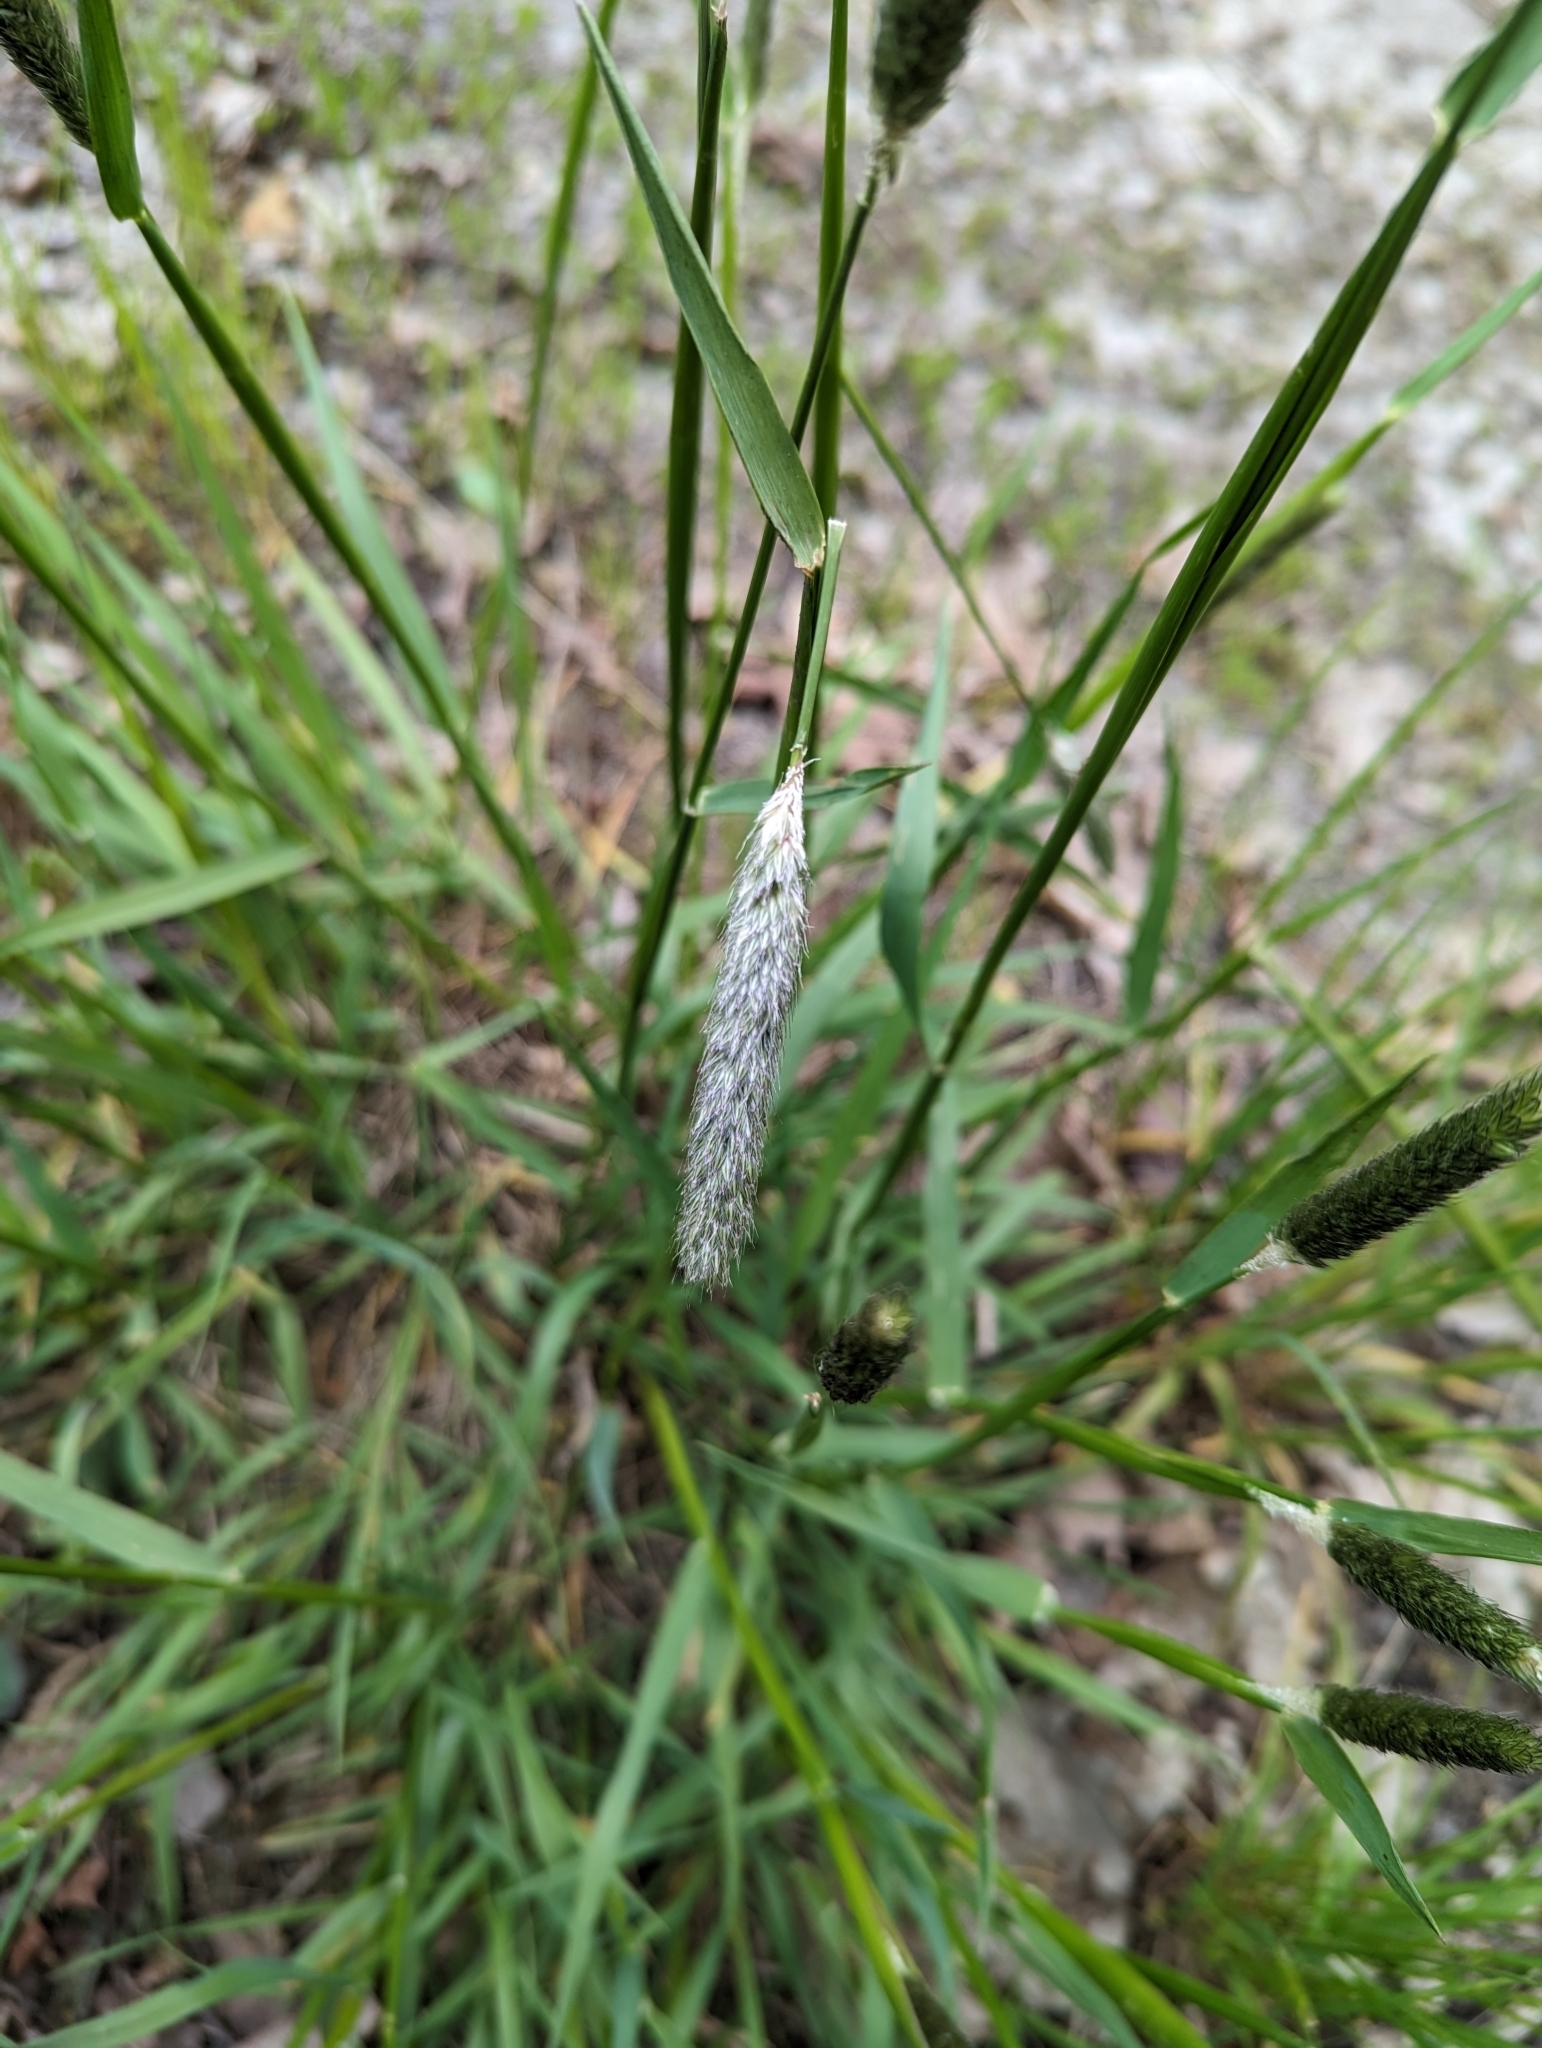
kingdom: Plantae
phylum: Tracheophyta
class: Liliopsida
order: Poales
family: Poaceae
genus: Alopecurus
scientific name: Alopecurus pratensis
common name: Meadow foxtail
